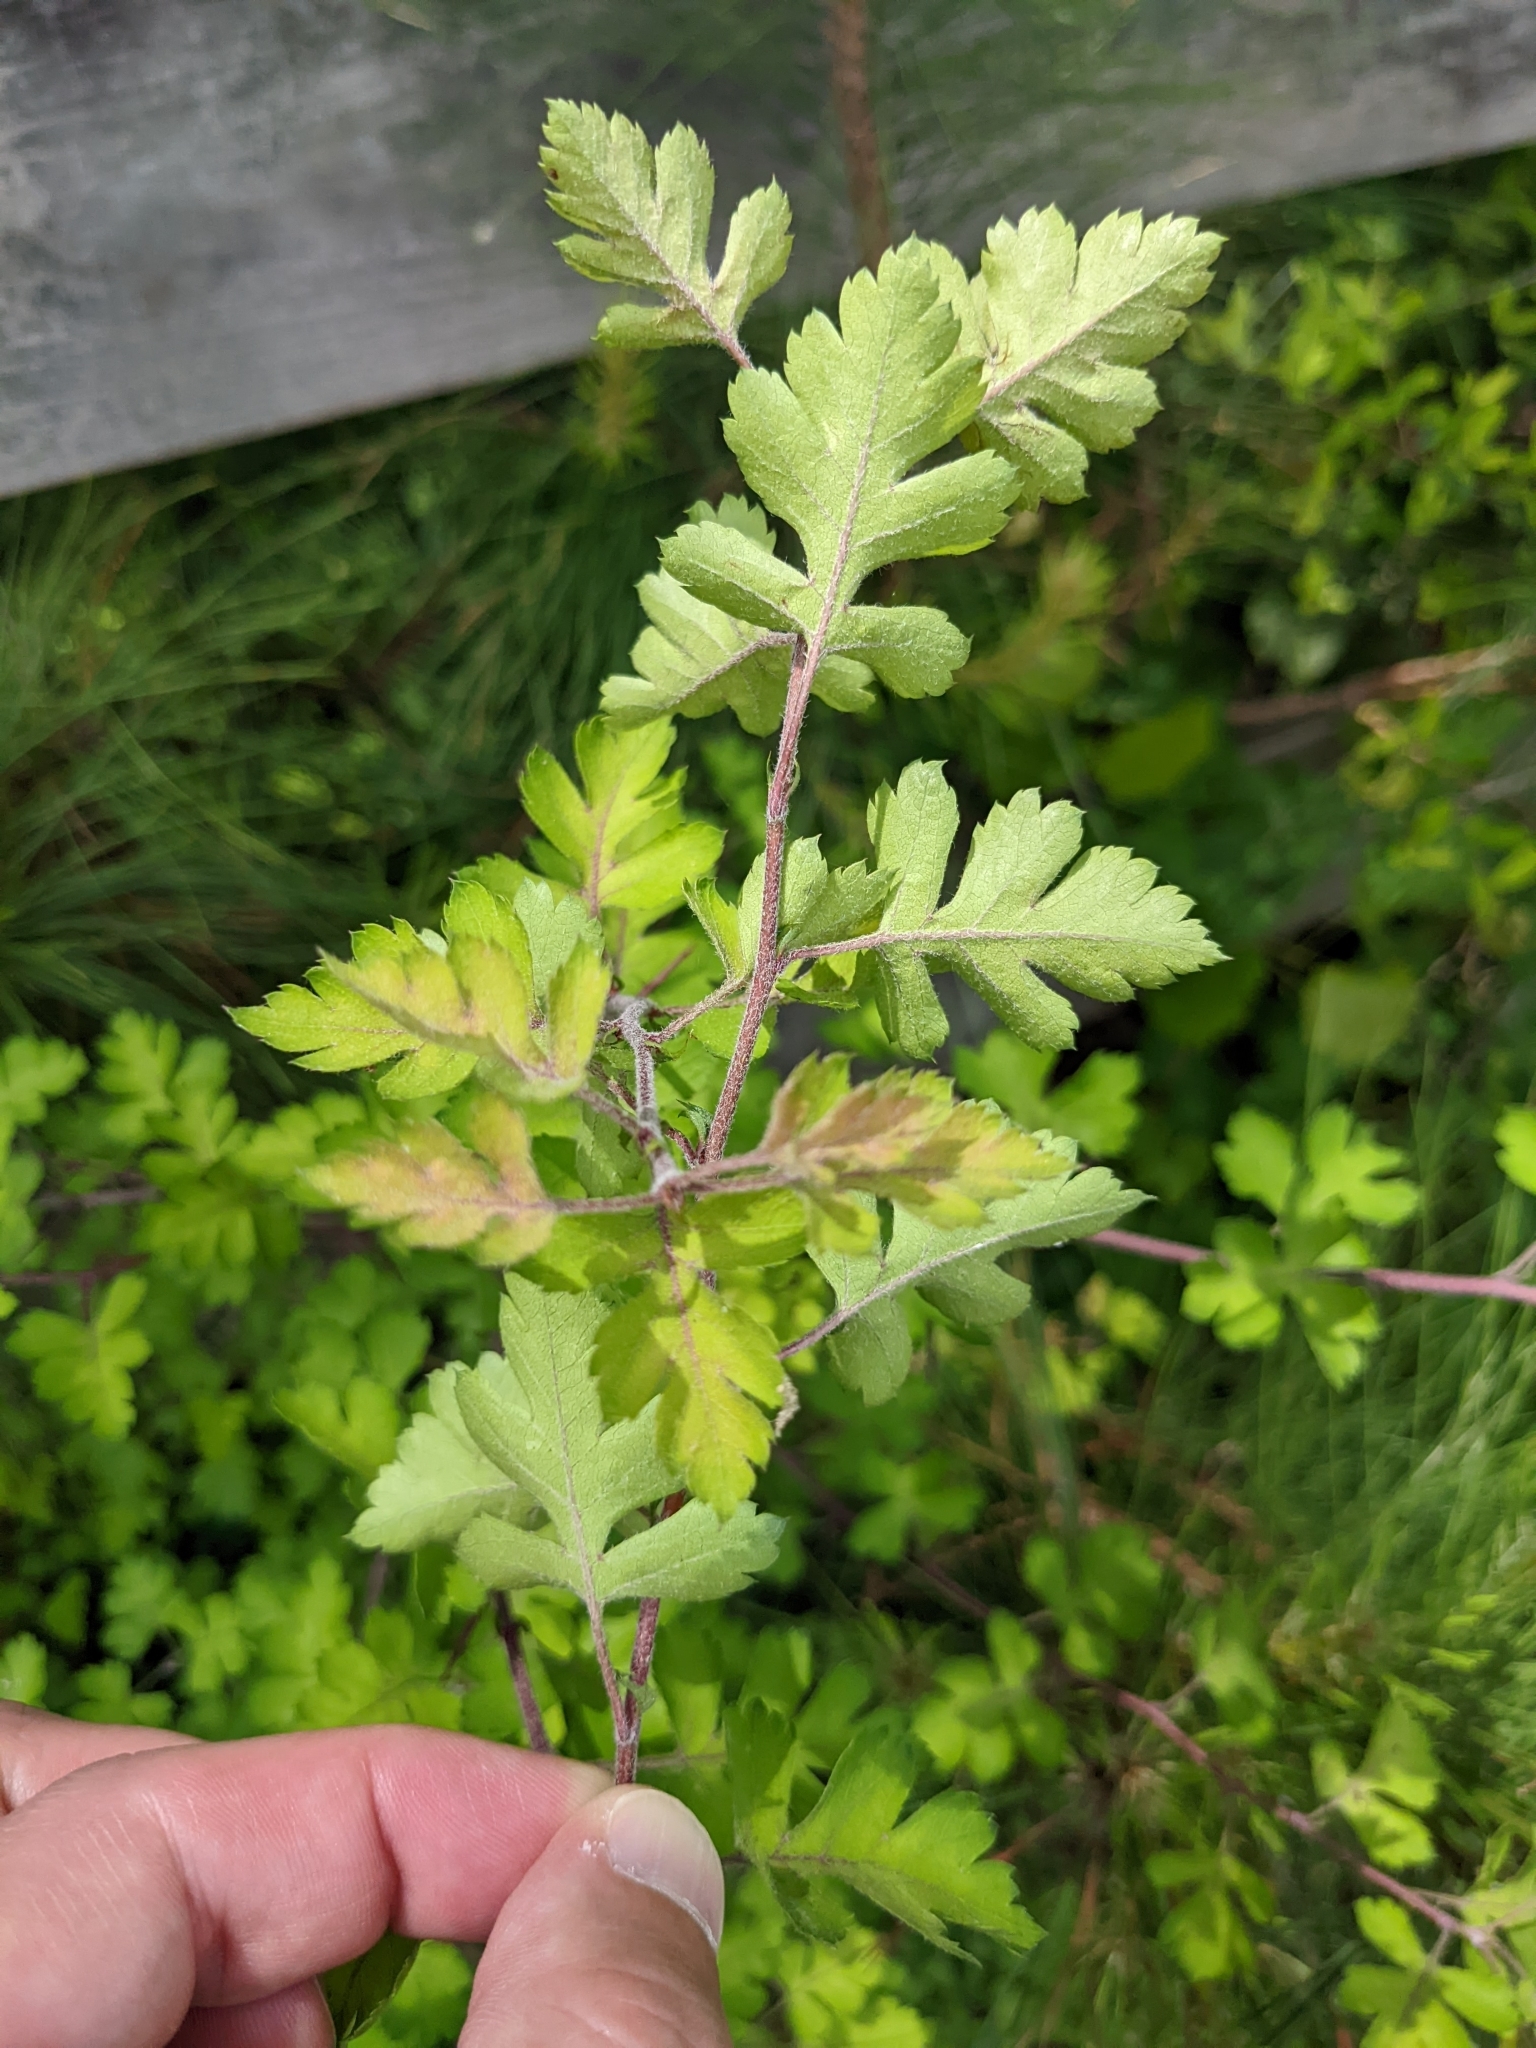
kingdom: Plantae
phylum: Tracheophyta
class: Magnoliopsida
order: Rosales
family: Rosaceae
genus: Crataegus
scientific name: Crataegus marshallii
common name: Parsley-hawthorn
